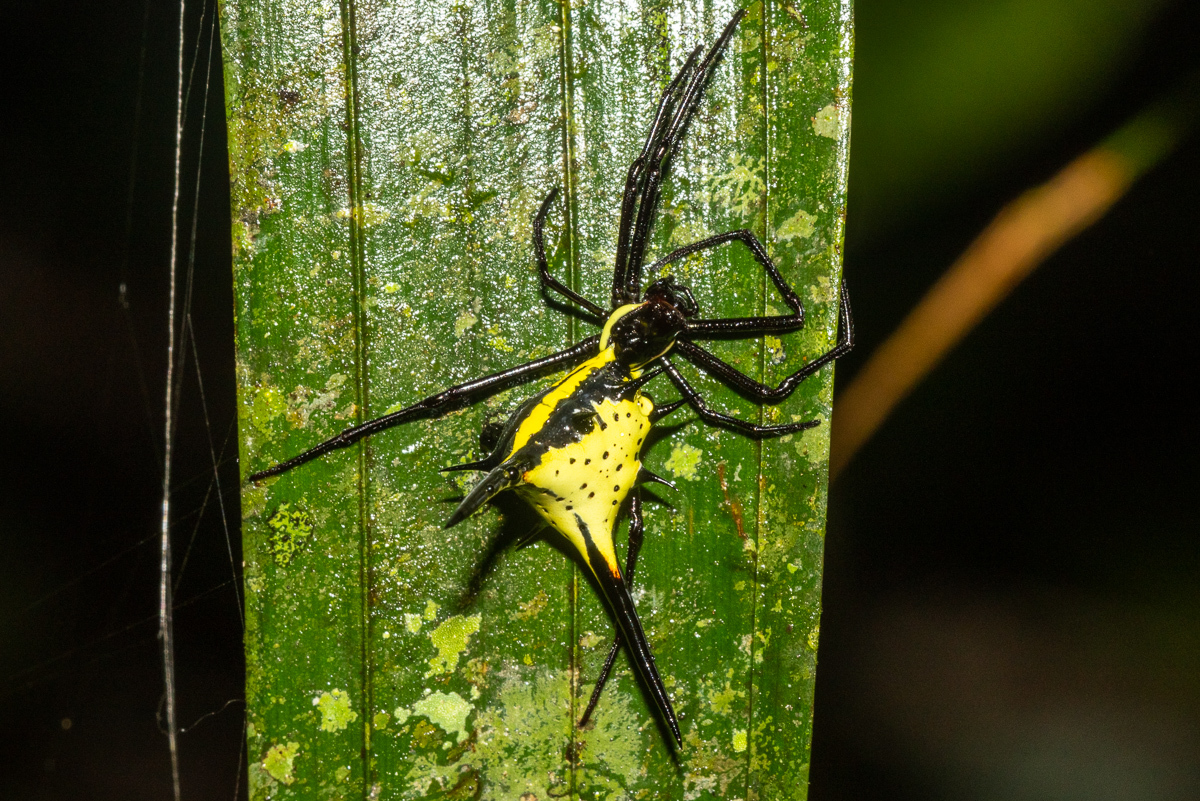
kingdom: Animalia
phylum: Arthropoda
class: Arachnida
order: Araneae
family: Araneidae
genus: Micrathena
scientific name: Micrathena schreibersi
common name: Orb weavers
